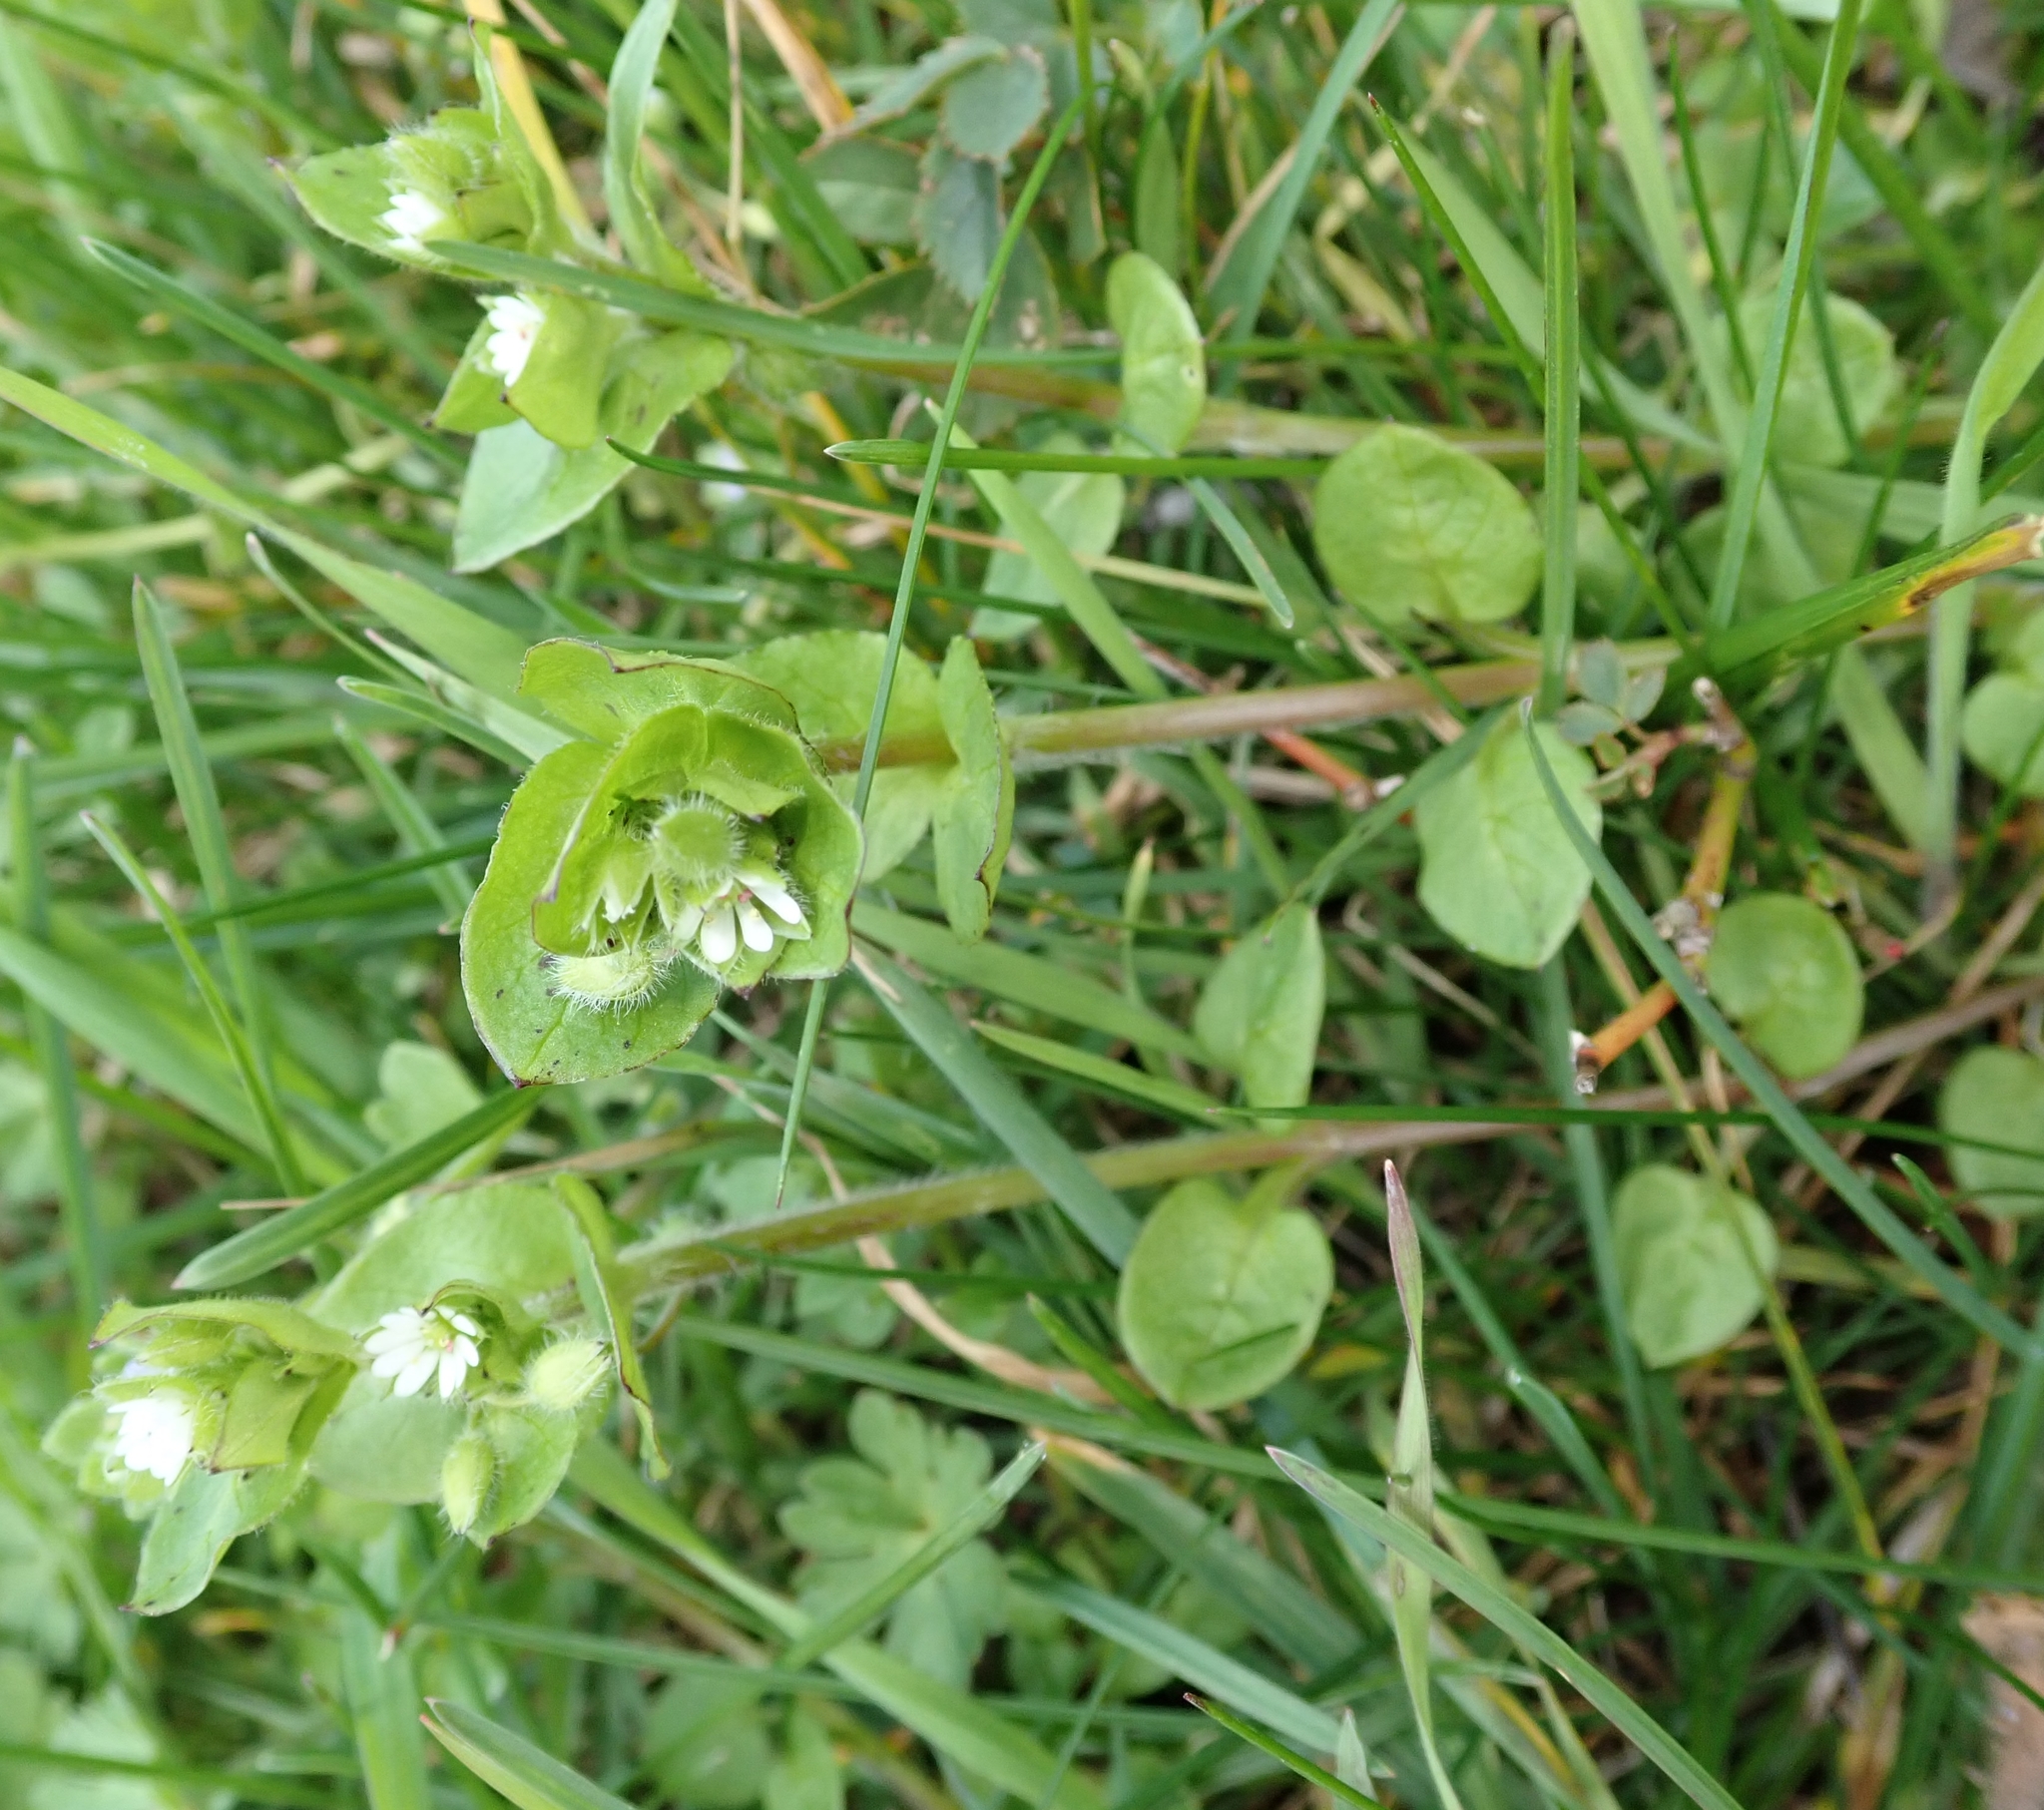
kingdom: Plantae
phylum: Tracheophyta
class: Magnoliopsida
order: Caryophyllales
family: Caryophyllaceae
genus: Stellaria
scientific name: Stellaria media
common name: Common chickweed
